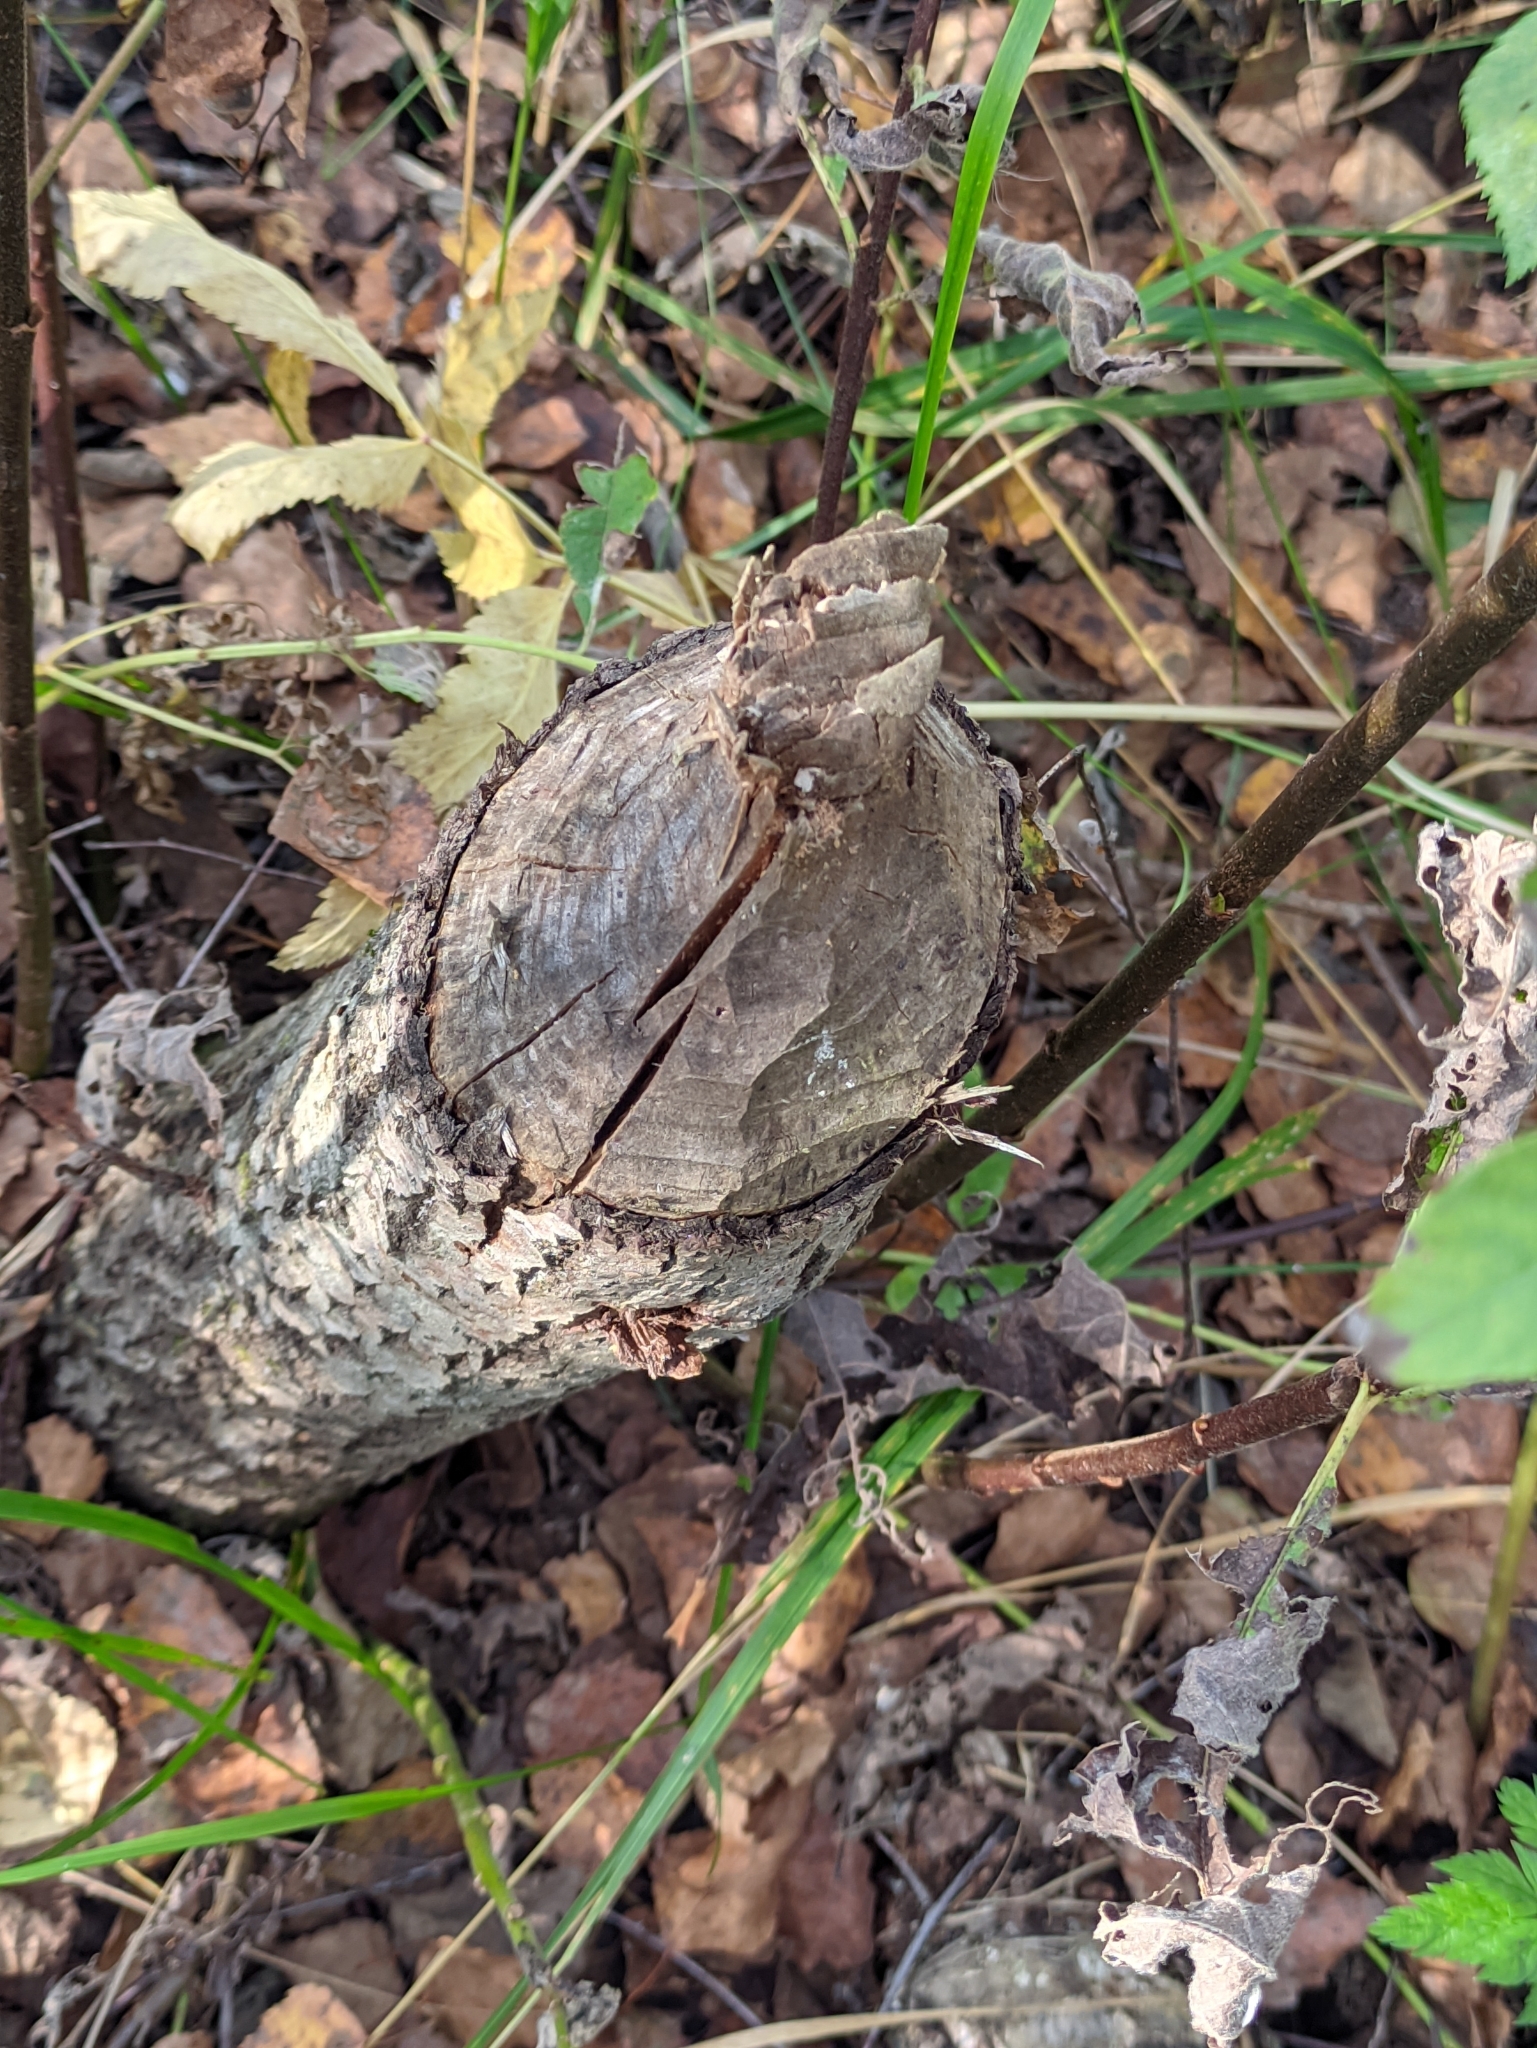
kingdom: Animalia
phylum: Chordata
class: Mammalia
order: Rodentia
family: Castoridae
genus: Castor
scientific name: Castor fiber
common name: Eurasian beaver
